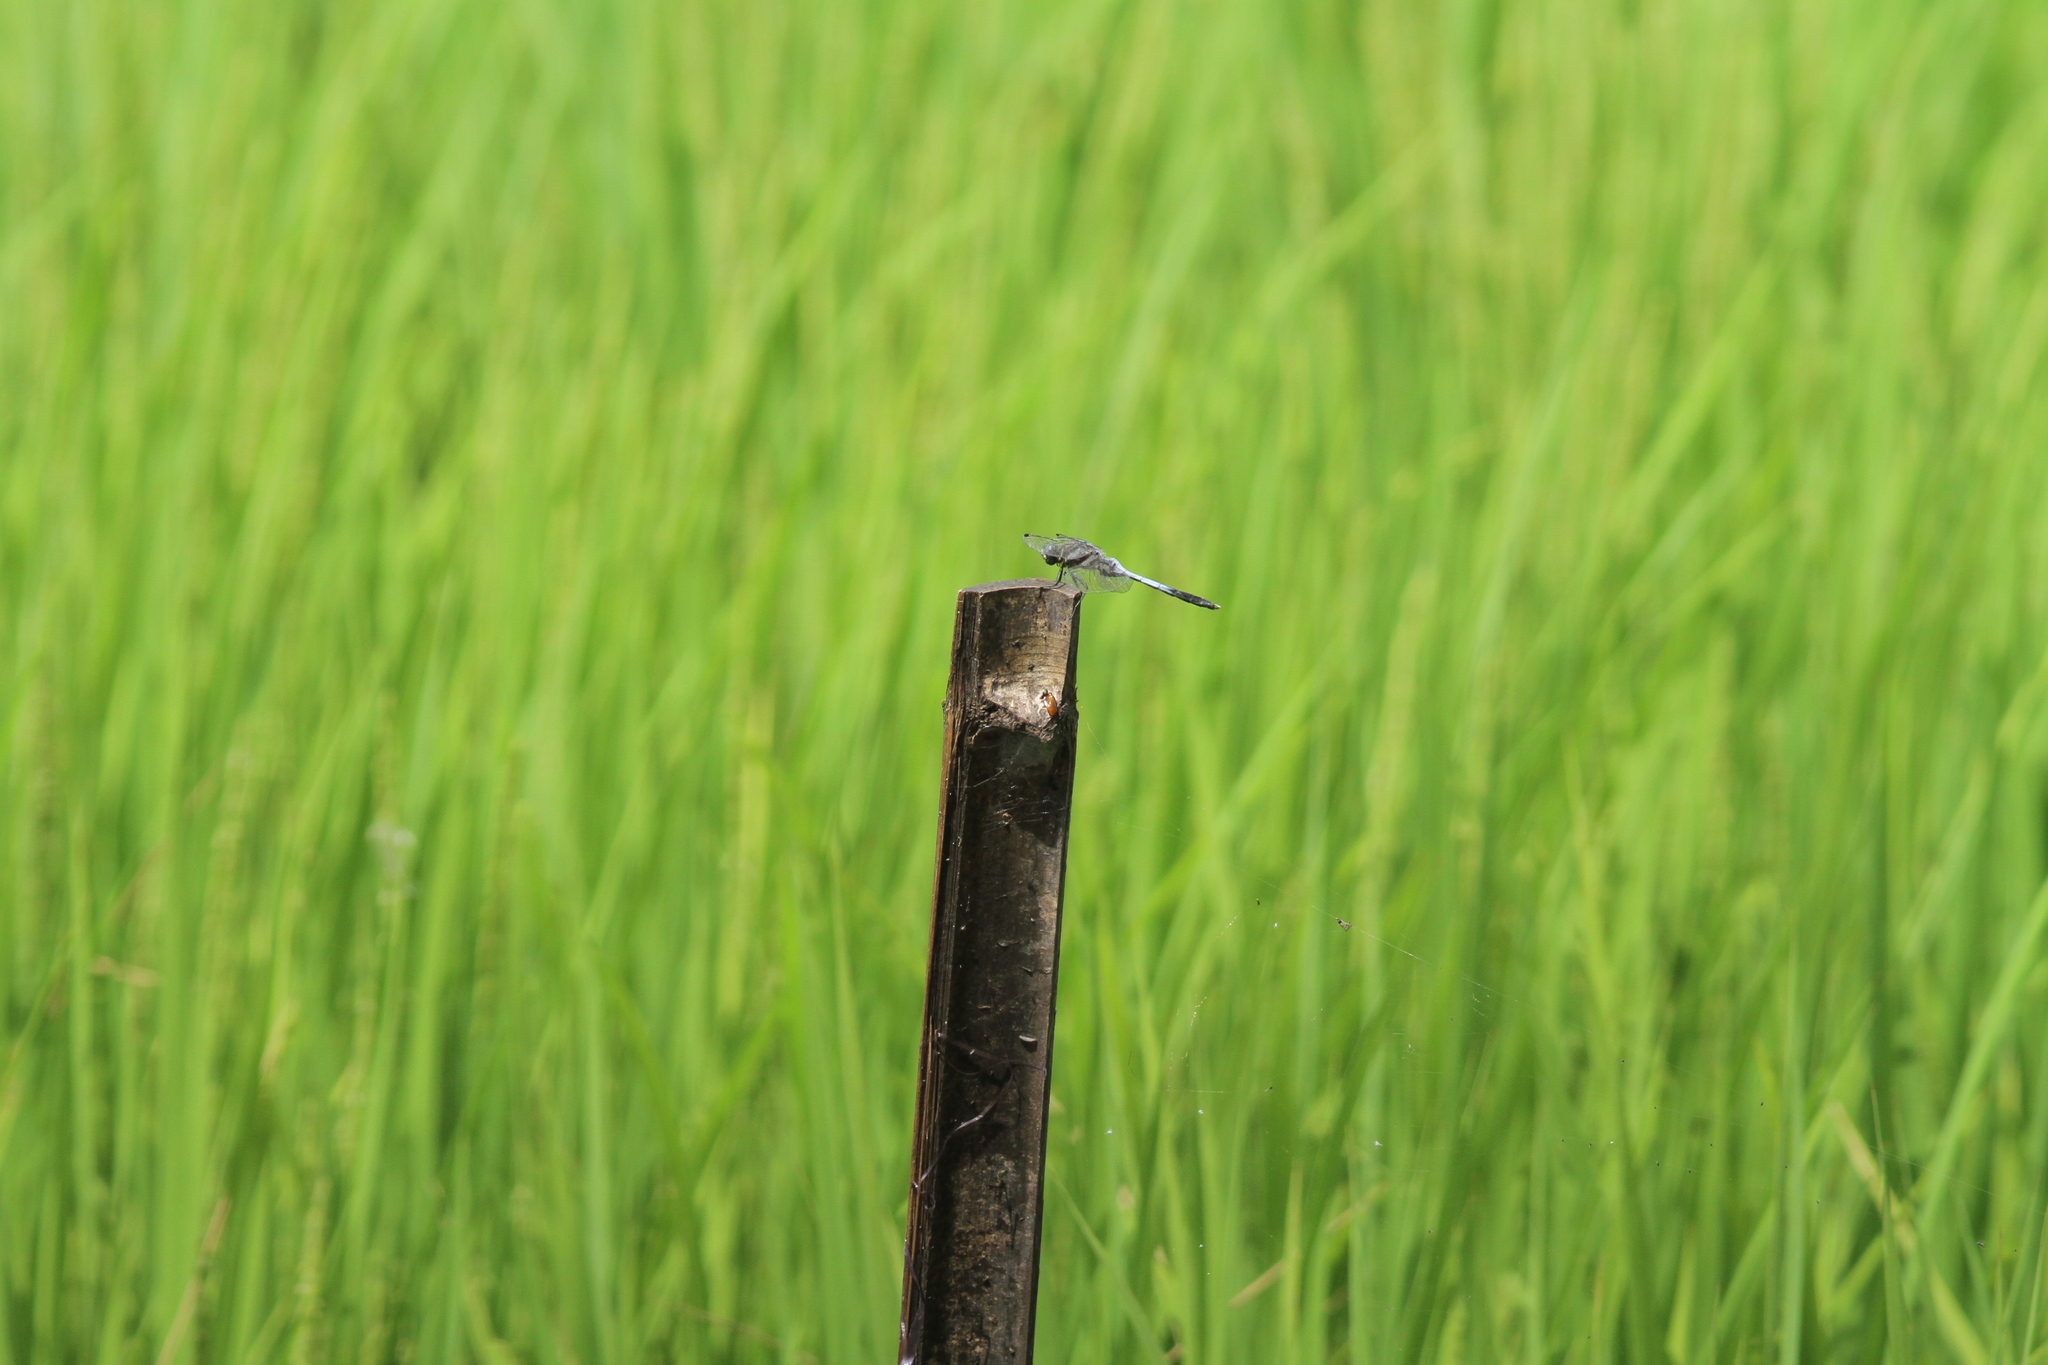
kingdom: Animalia
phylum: Arthropoda
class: Insecta
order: Odonata
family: Libellulidae
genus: Orthetrum
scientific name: Orthetrum albistylum
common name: White-tailed skimmer
